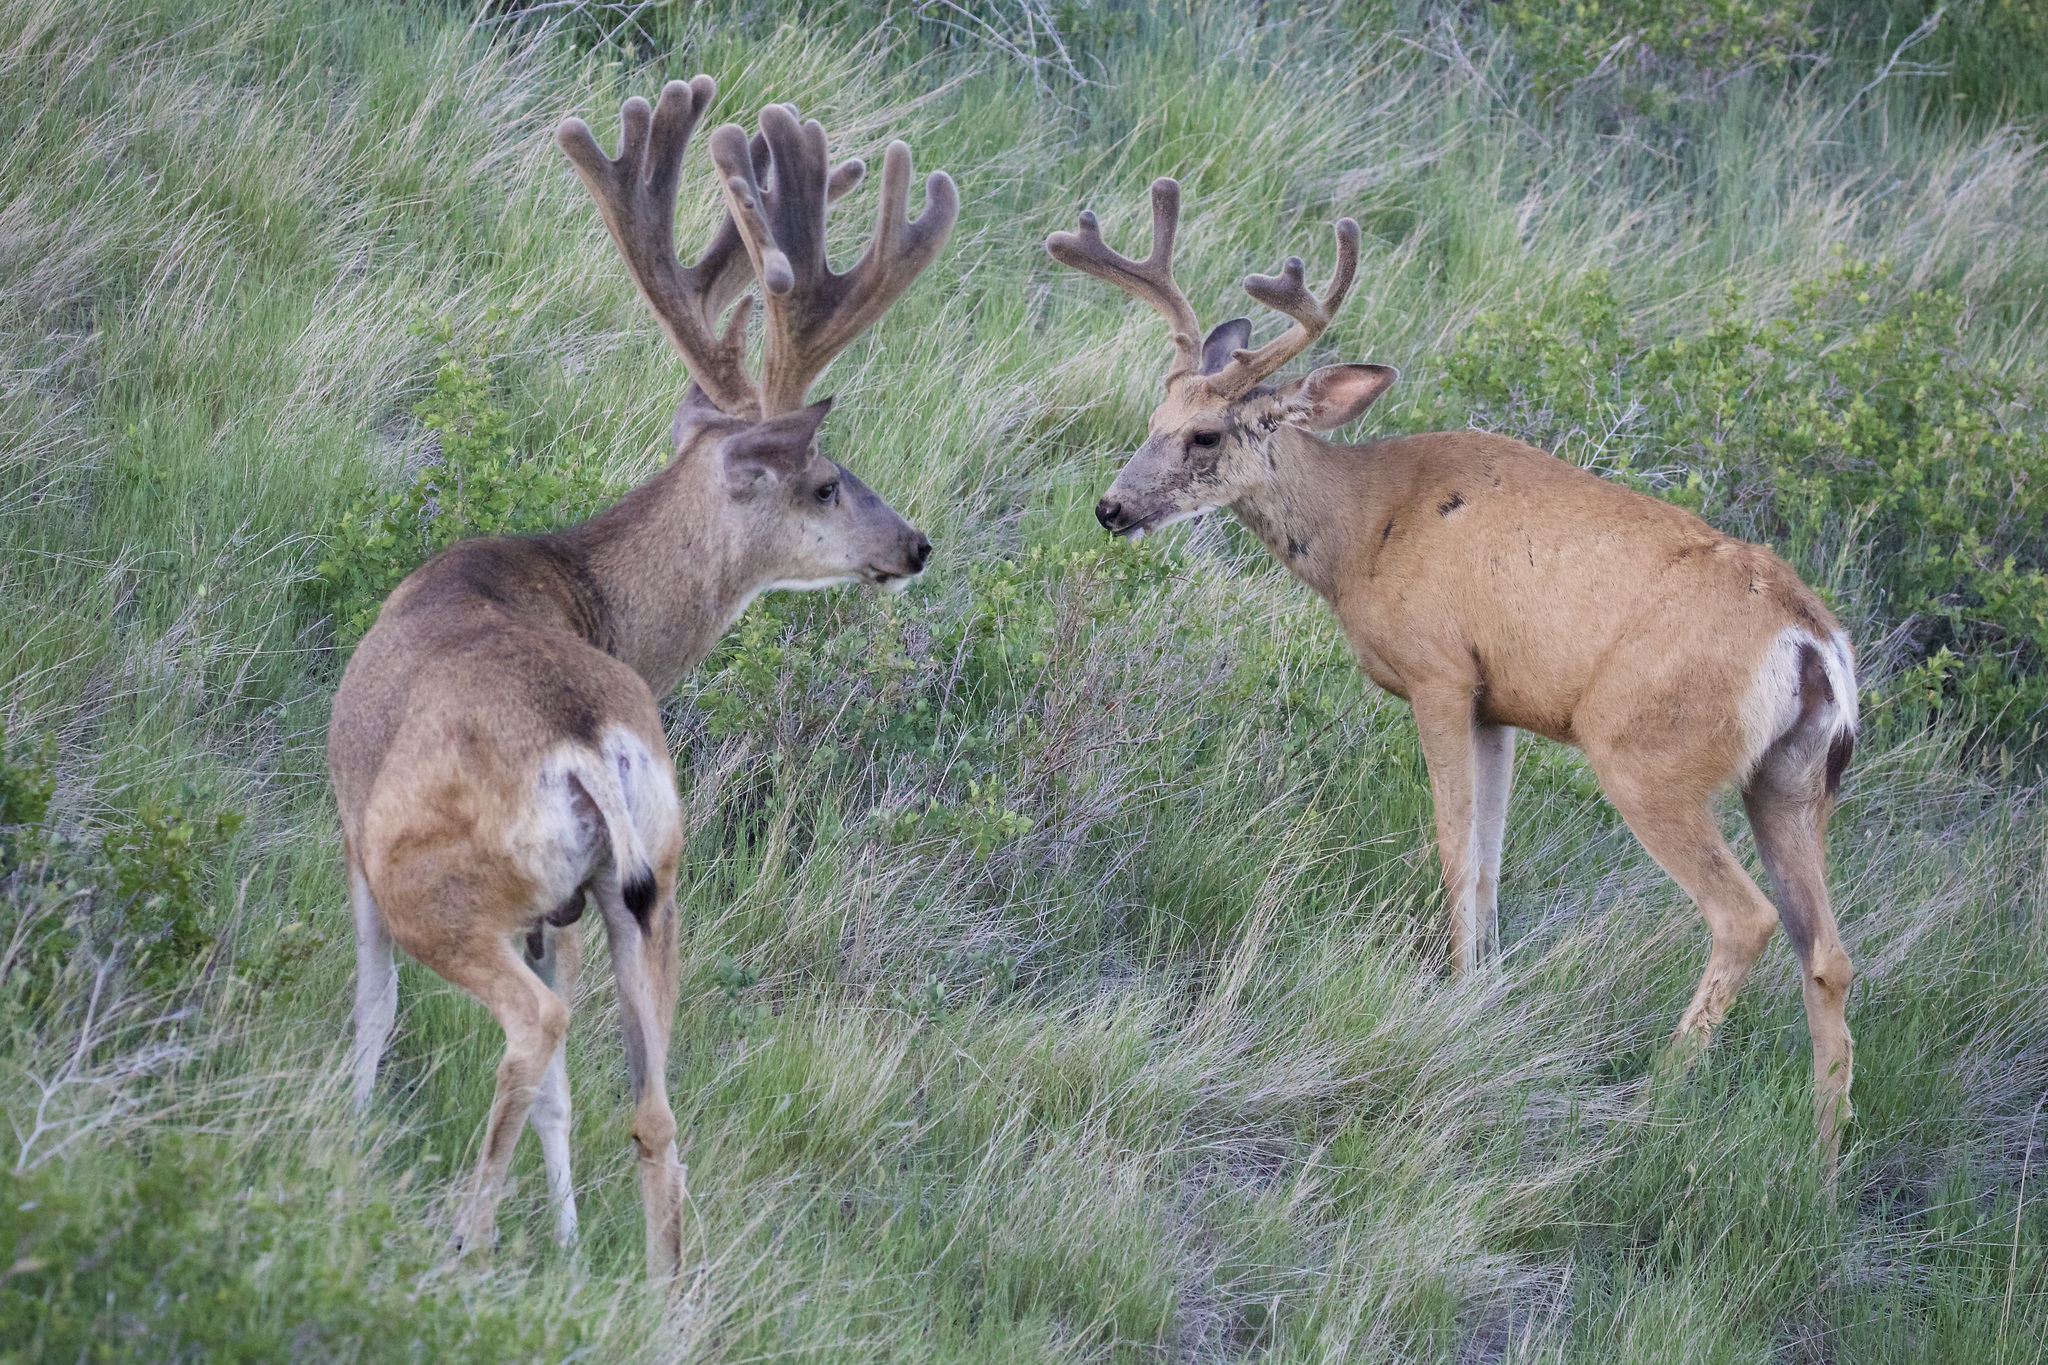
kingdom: Animalia
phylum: Chordata
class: Mammalia
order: Artiodactyla
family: Cervidae
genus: Odocoileus
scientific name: Odocoileus hemionus
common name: Mule deer
